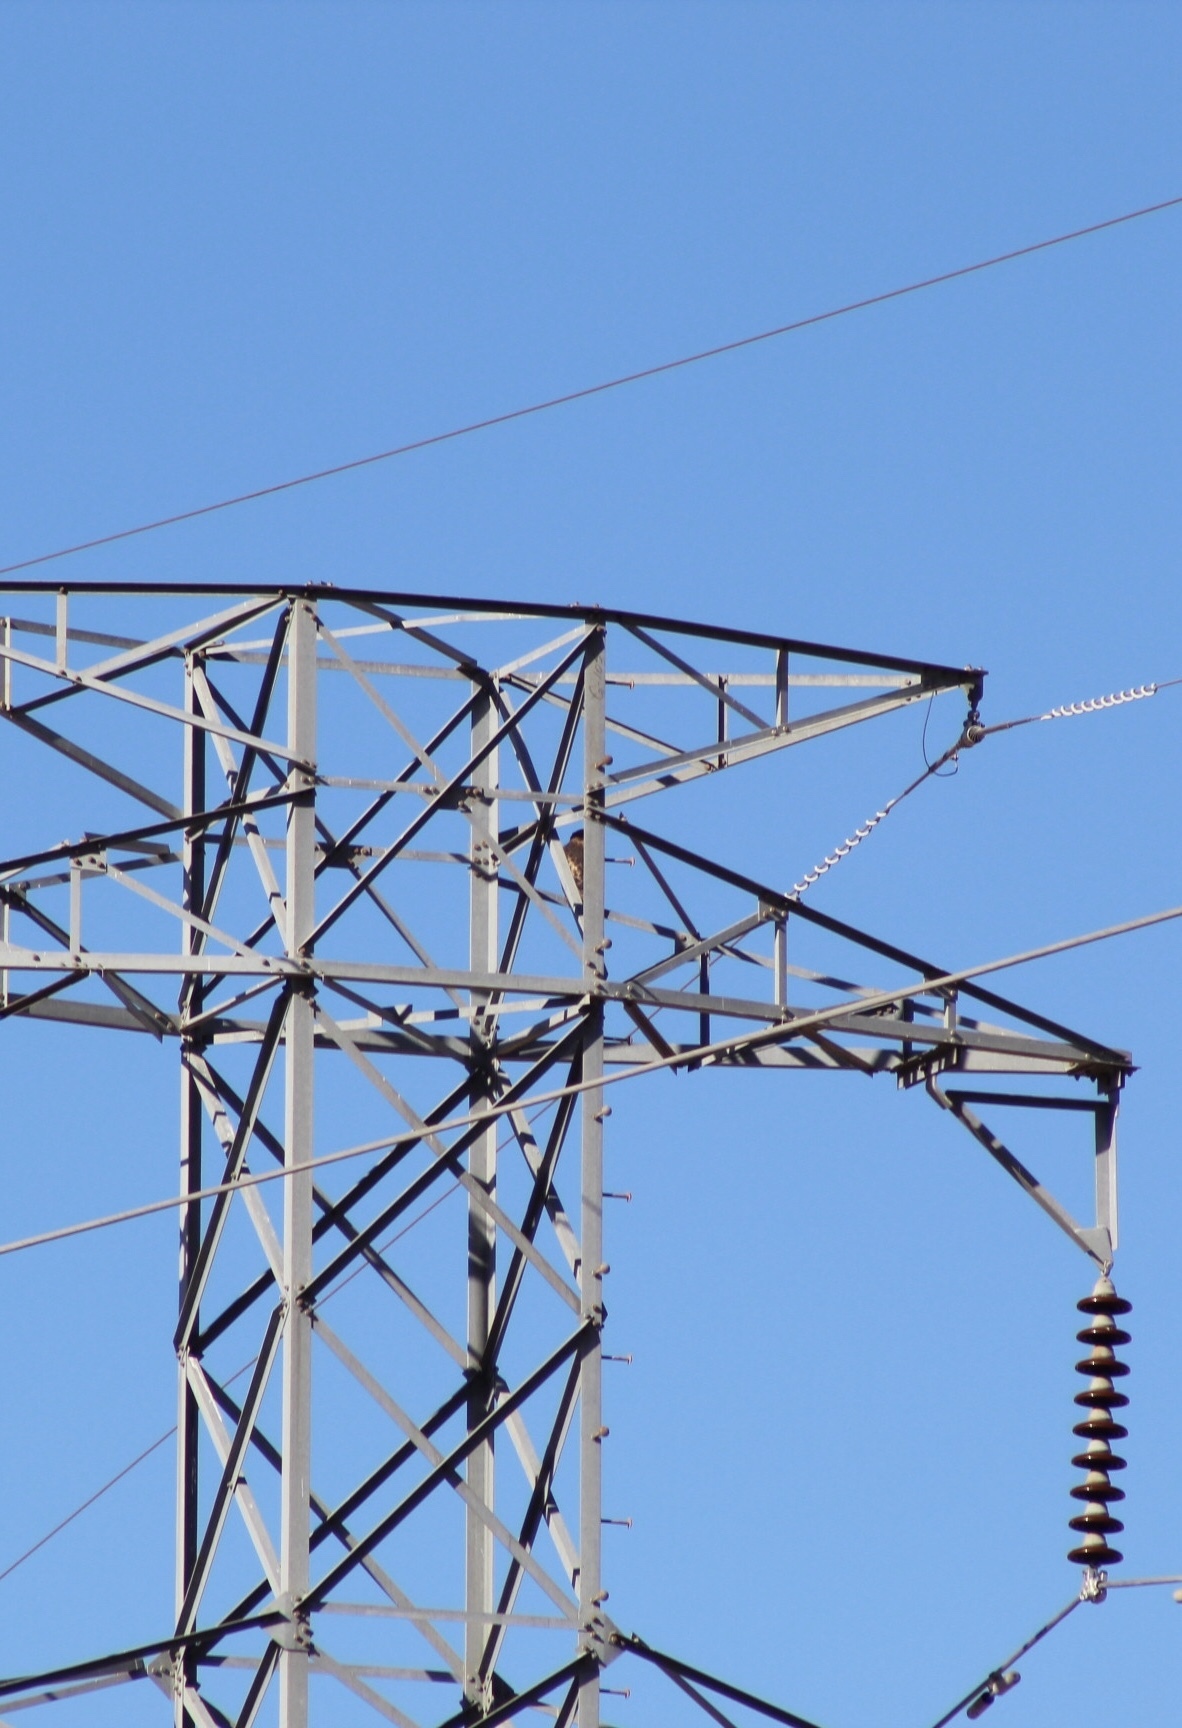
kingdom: Animalia
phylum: Chordata
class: Aves
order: Accipitriformes
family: Accipitridae
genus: Buteo
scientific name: Buteo jamaicensis
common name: Red-tailed hawk
